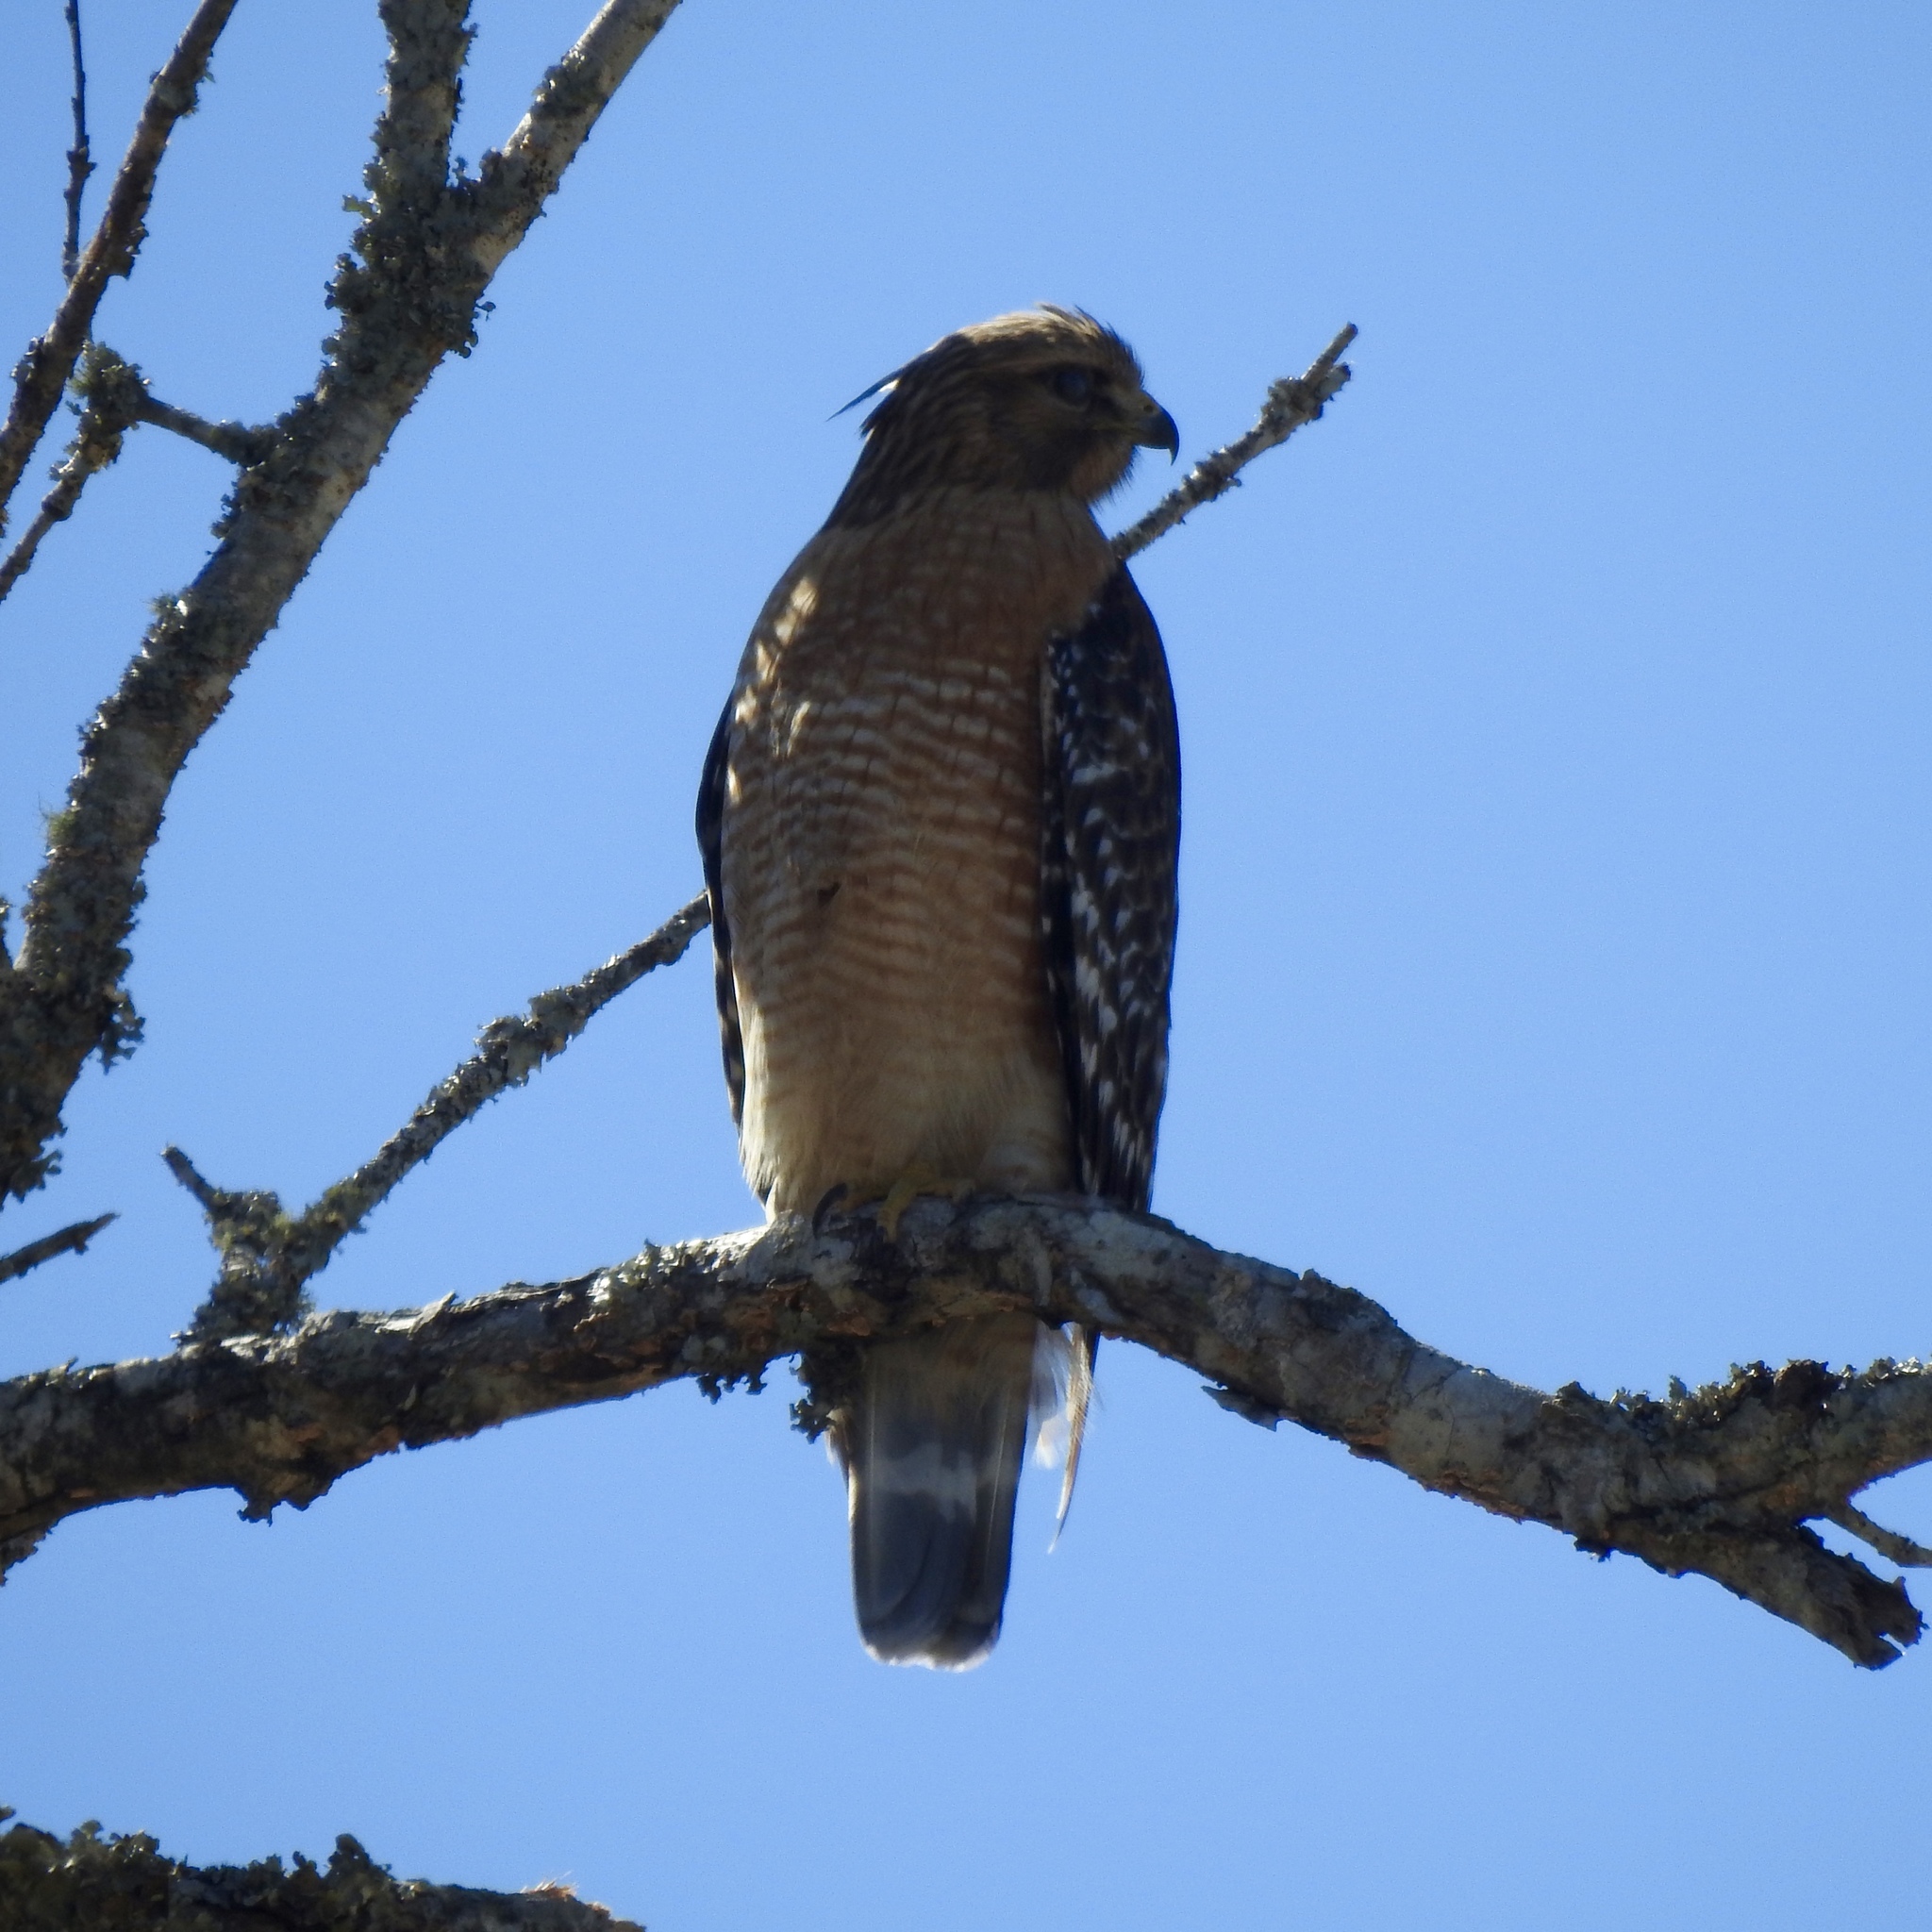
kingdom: Animalia
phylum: Chordata
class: Aves
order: Accipitriformes
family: Accipitridae
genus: Buteo
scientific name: Buteo lineatus
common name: Red-shouldered hawk
